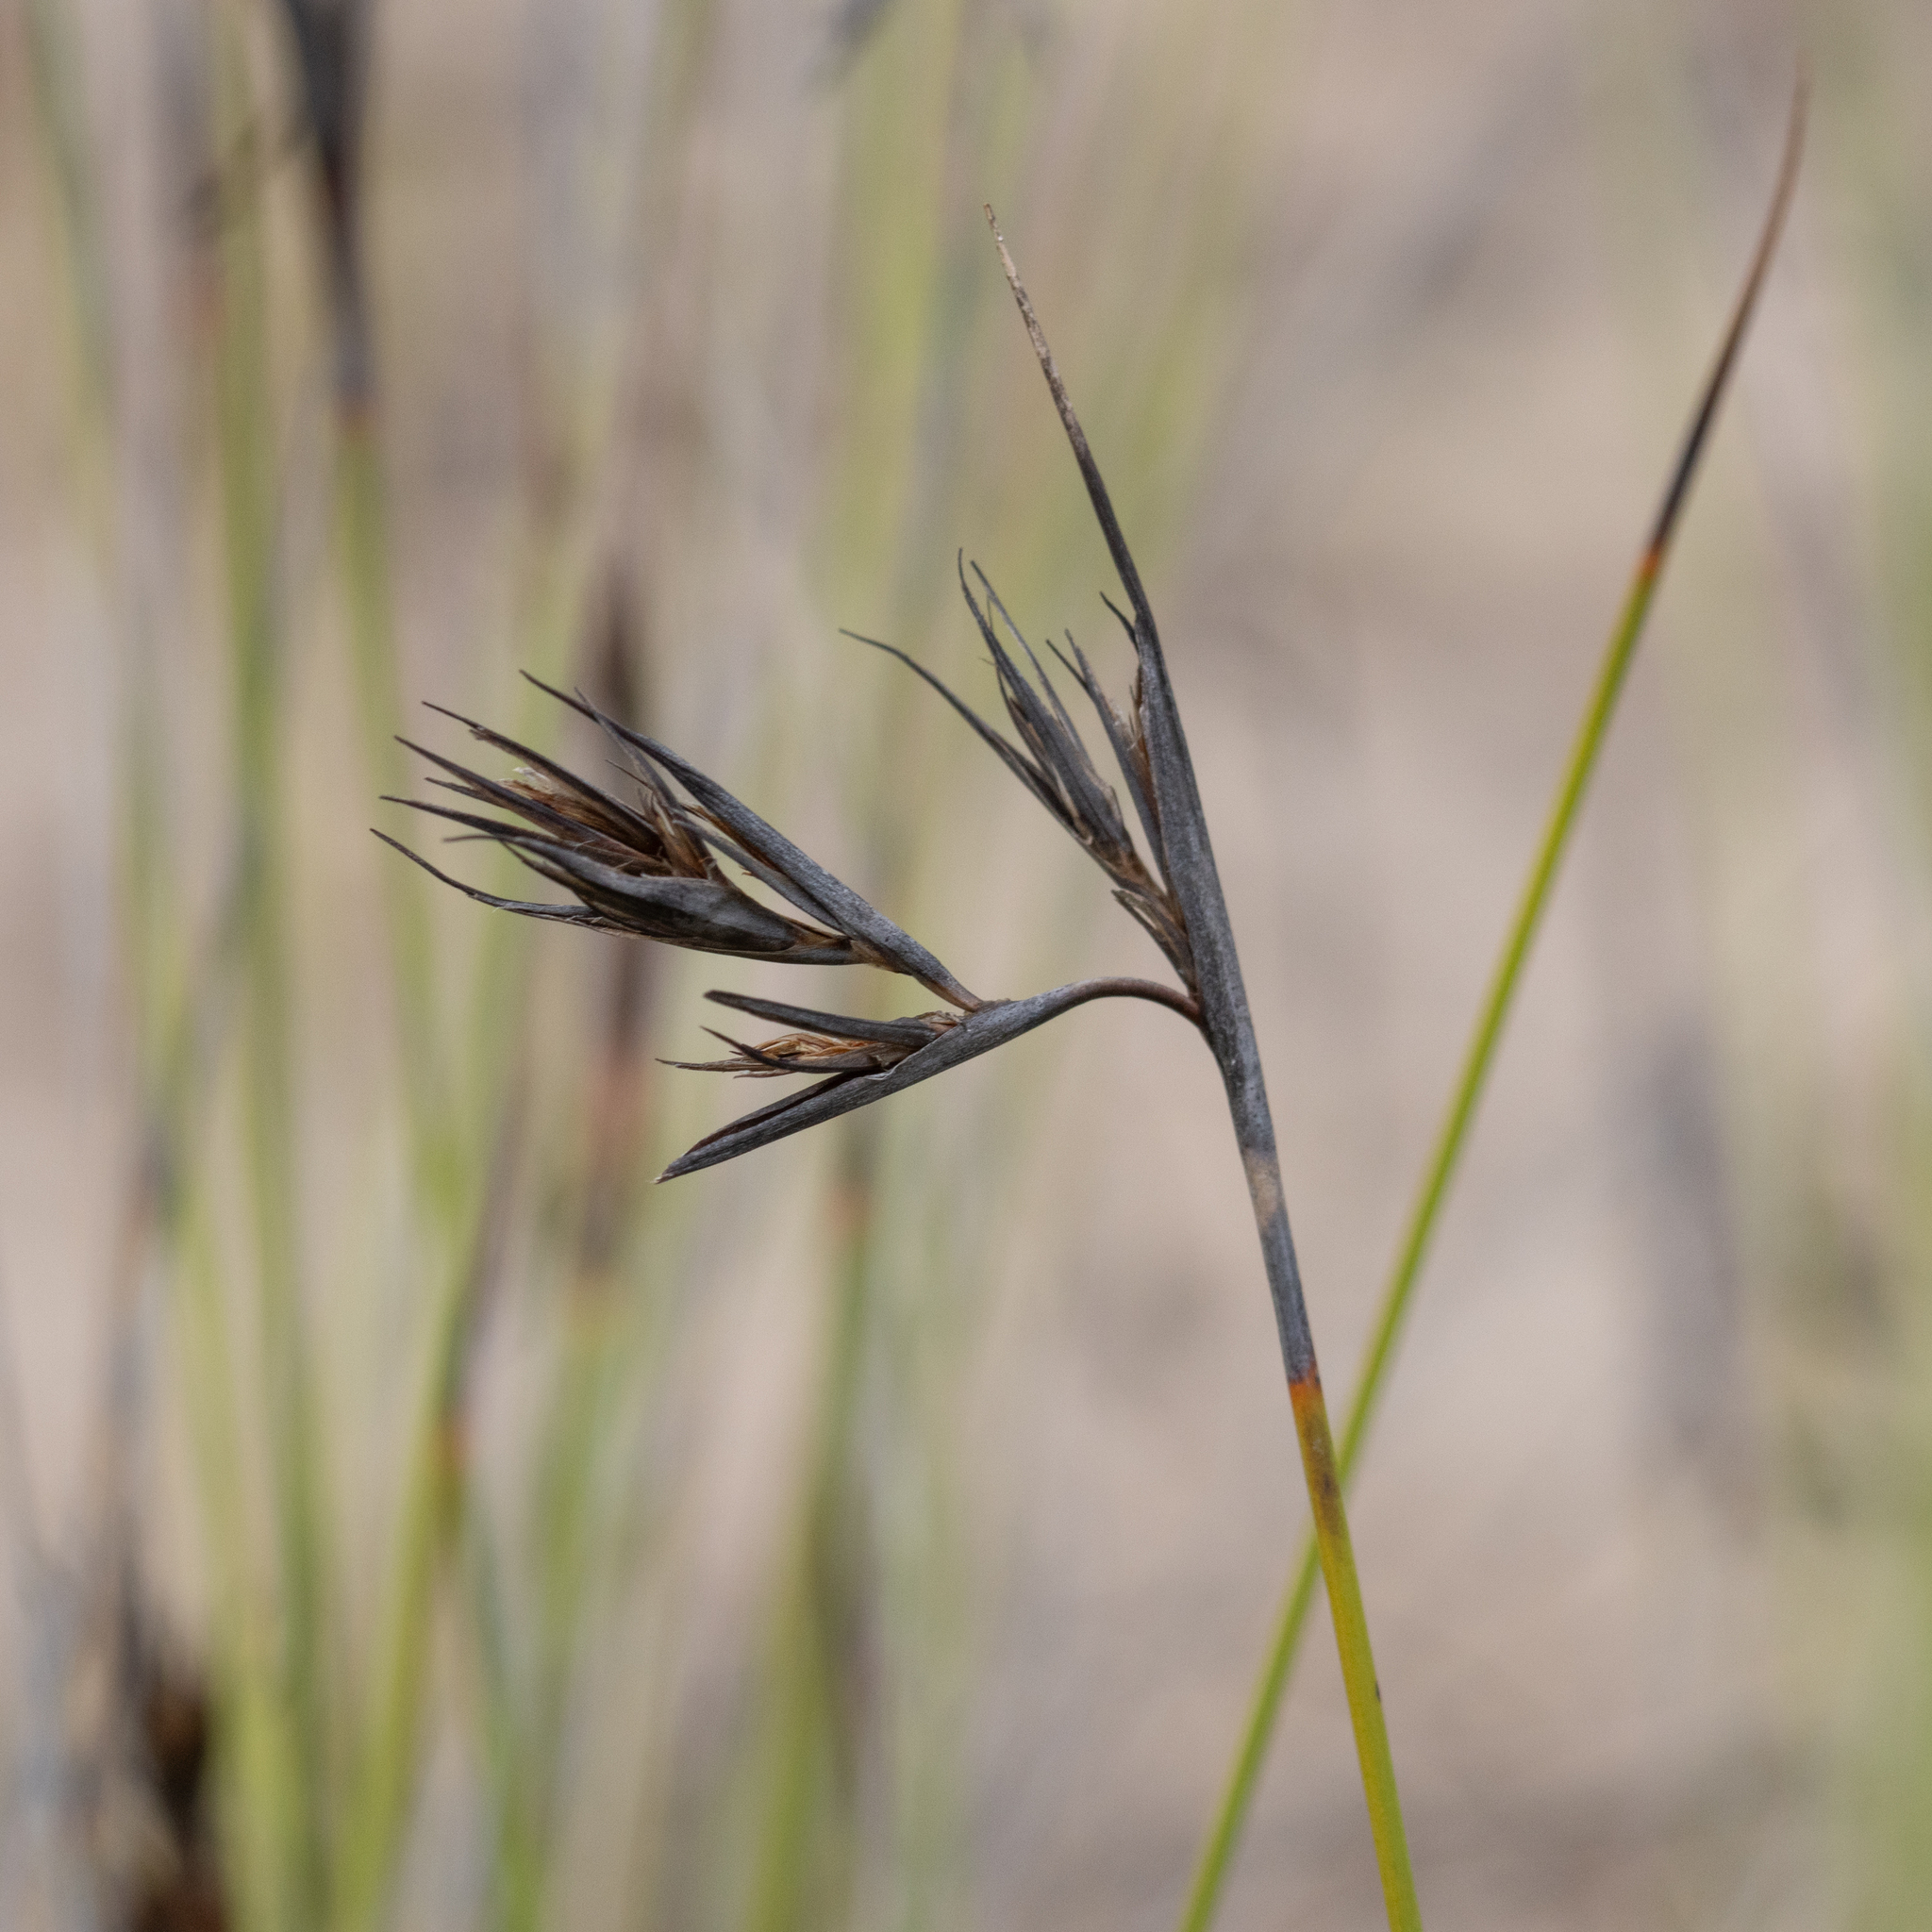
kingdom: Plantae
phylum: Tracheophyta
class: Liliopsida
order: Poales
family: Cyperaceae
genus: Lepidosperma
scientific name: Lepidosperma carphoides
